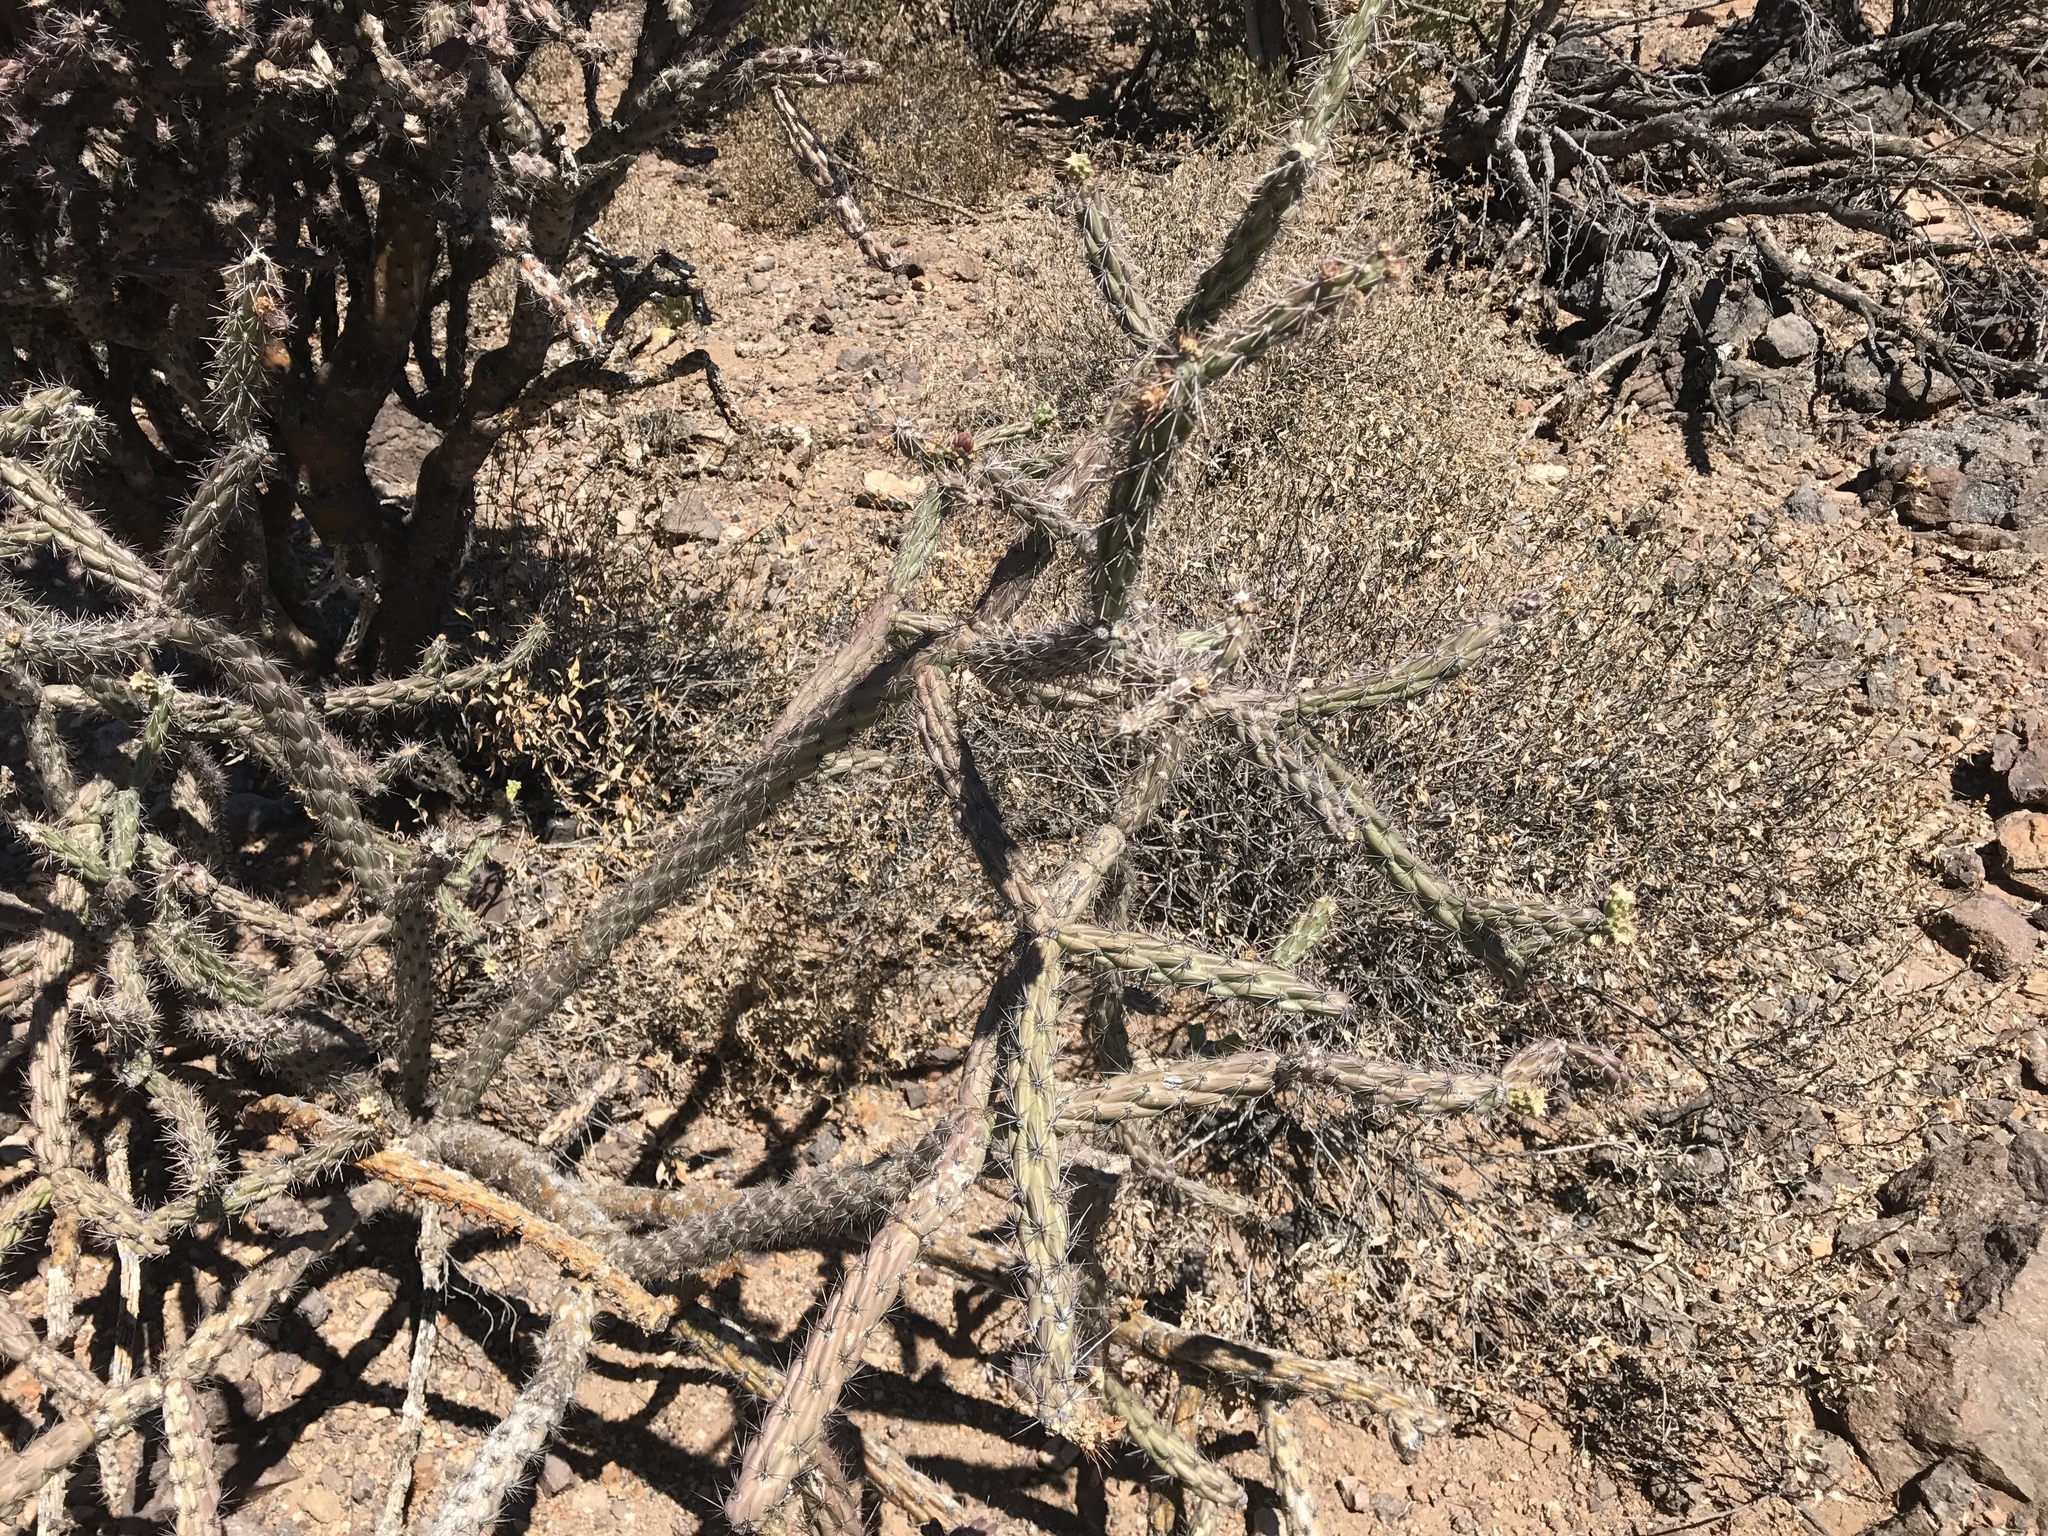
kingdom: Plantae
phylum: Tracheophyta
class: Magnoliopsida
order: Caryophyllales
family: Cactaceae
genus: Cylindropuntia
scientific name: Cylindropuntia imbricata
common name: Candelabrum cactus
